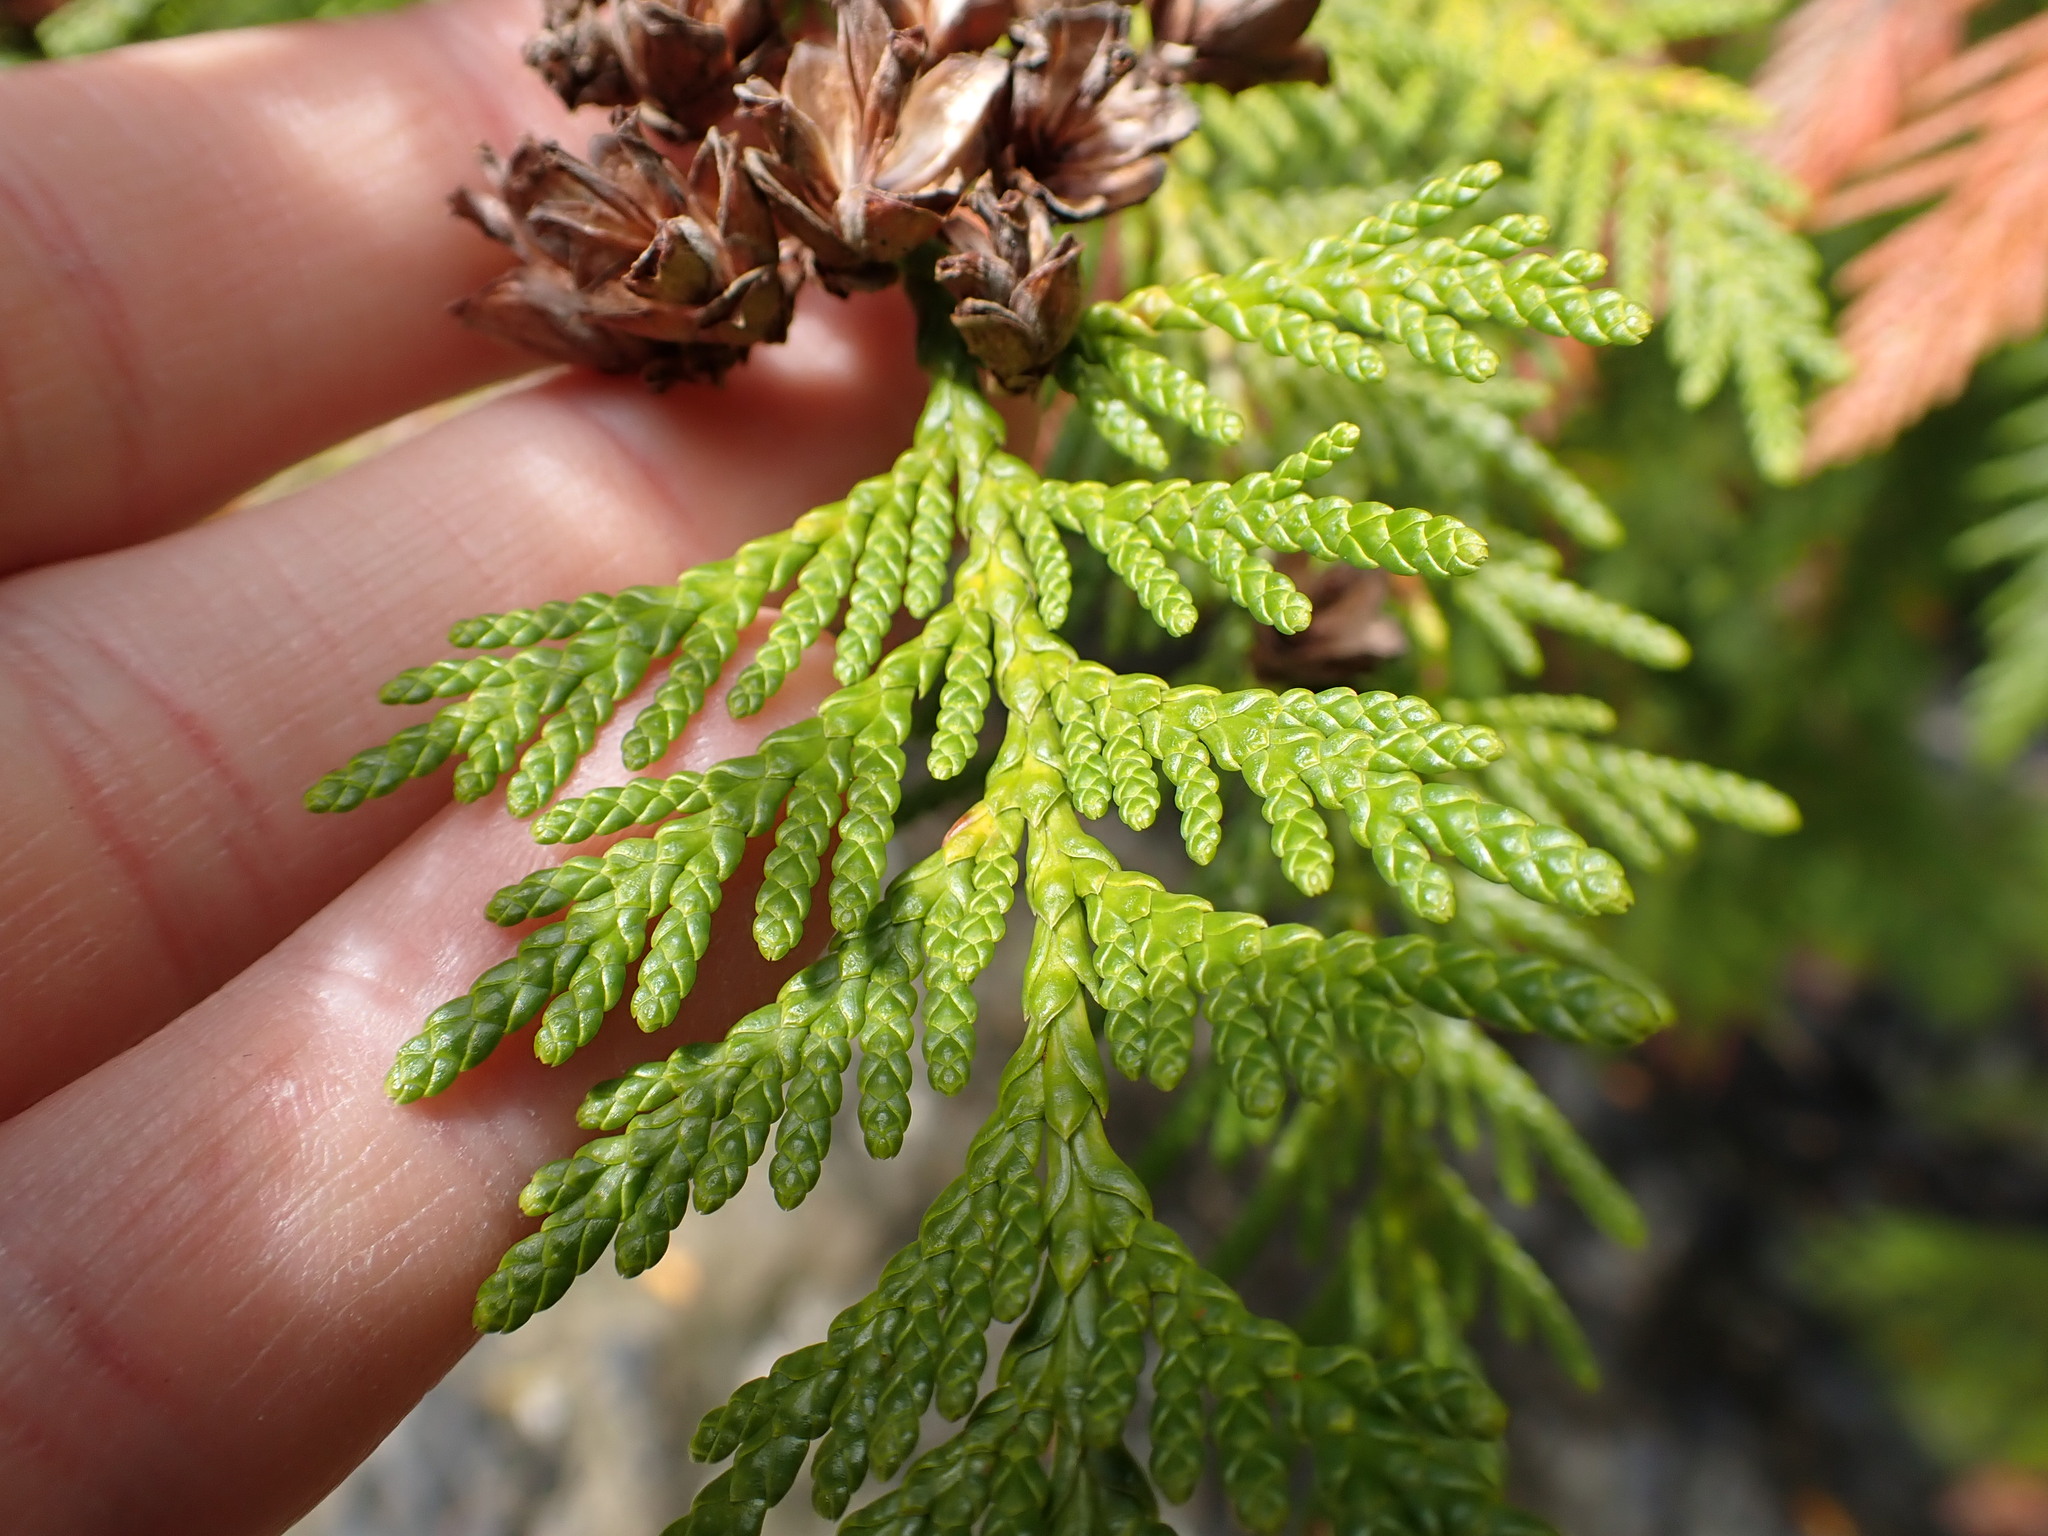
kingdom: Plantae
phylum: Tracheophyta
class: Pinopsida
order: Pinales
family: Cupressaceae
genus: Thuja
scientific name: Thuja plicata
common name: Western red-cedar
